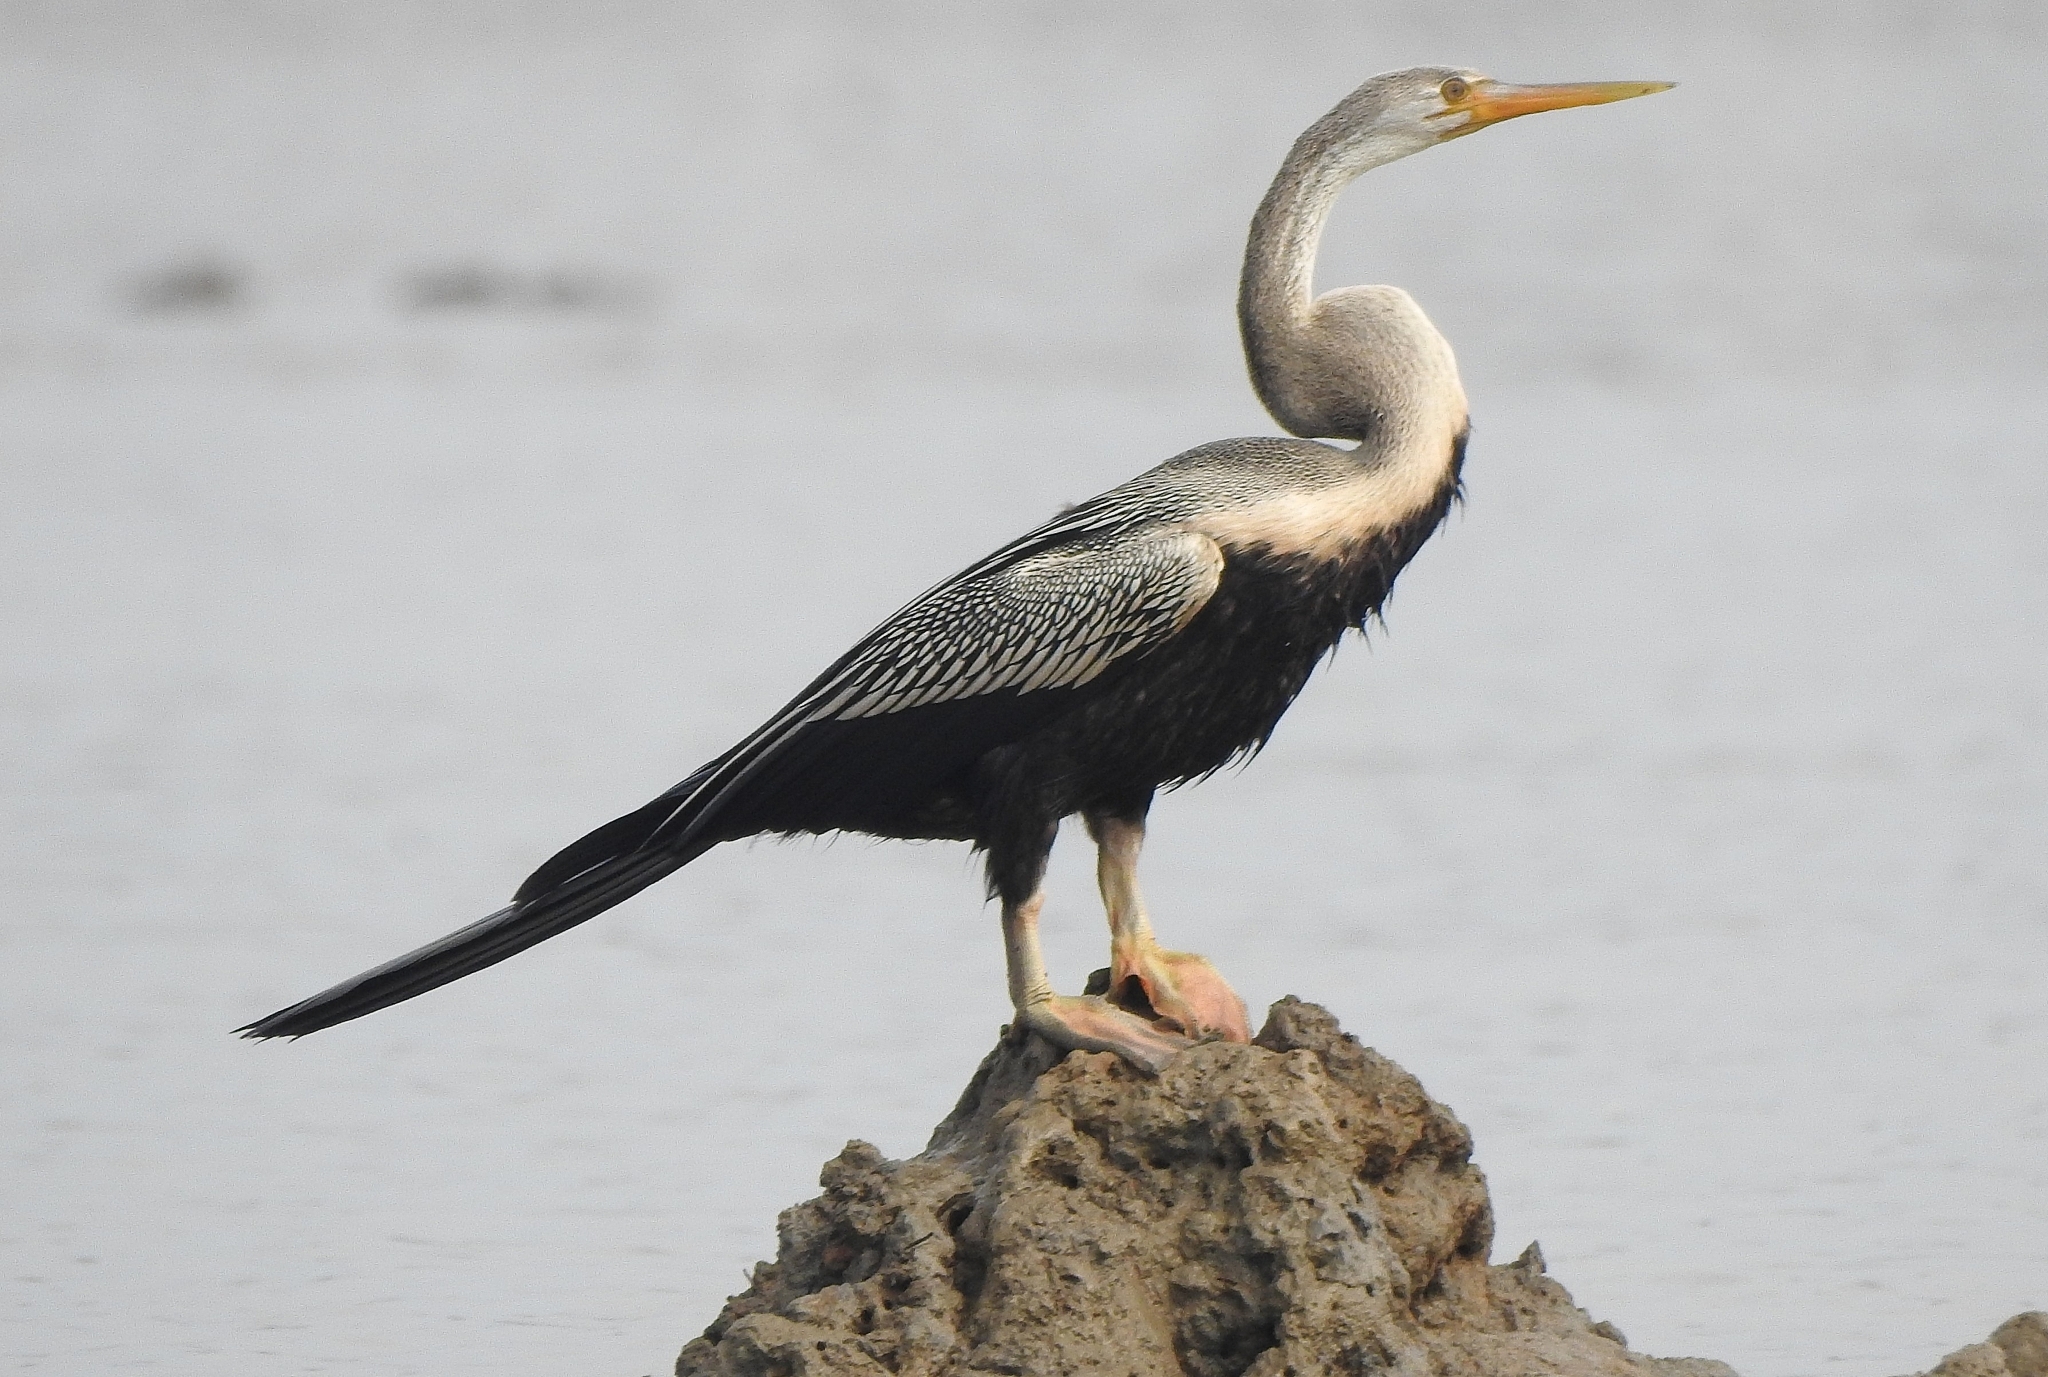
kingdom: Animalia
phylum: Chordata
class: Aves
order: Suliformes
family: Anhingidae
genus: Anhinga
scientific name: Anhinga melanogaster
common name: Oriental darter
